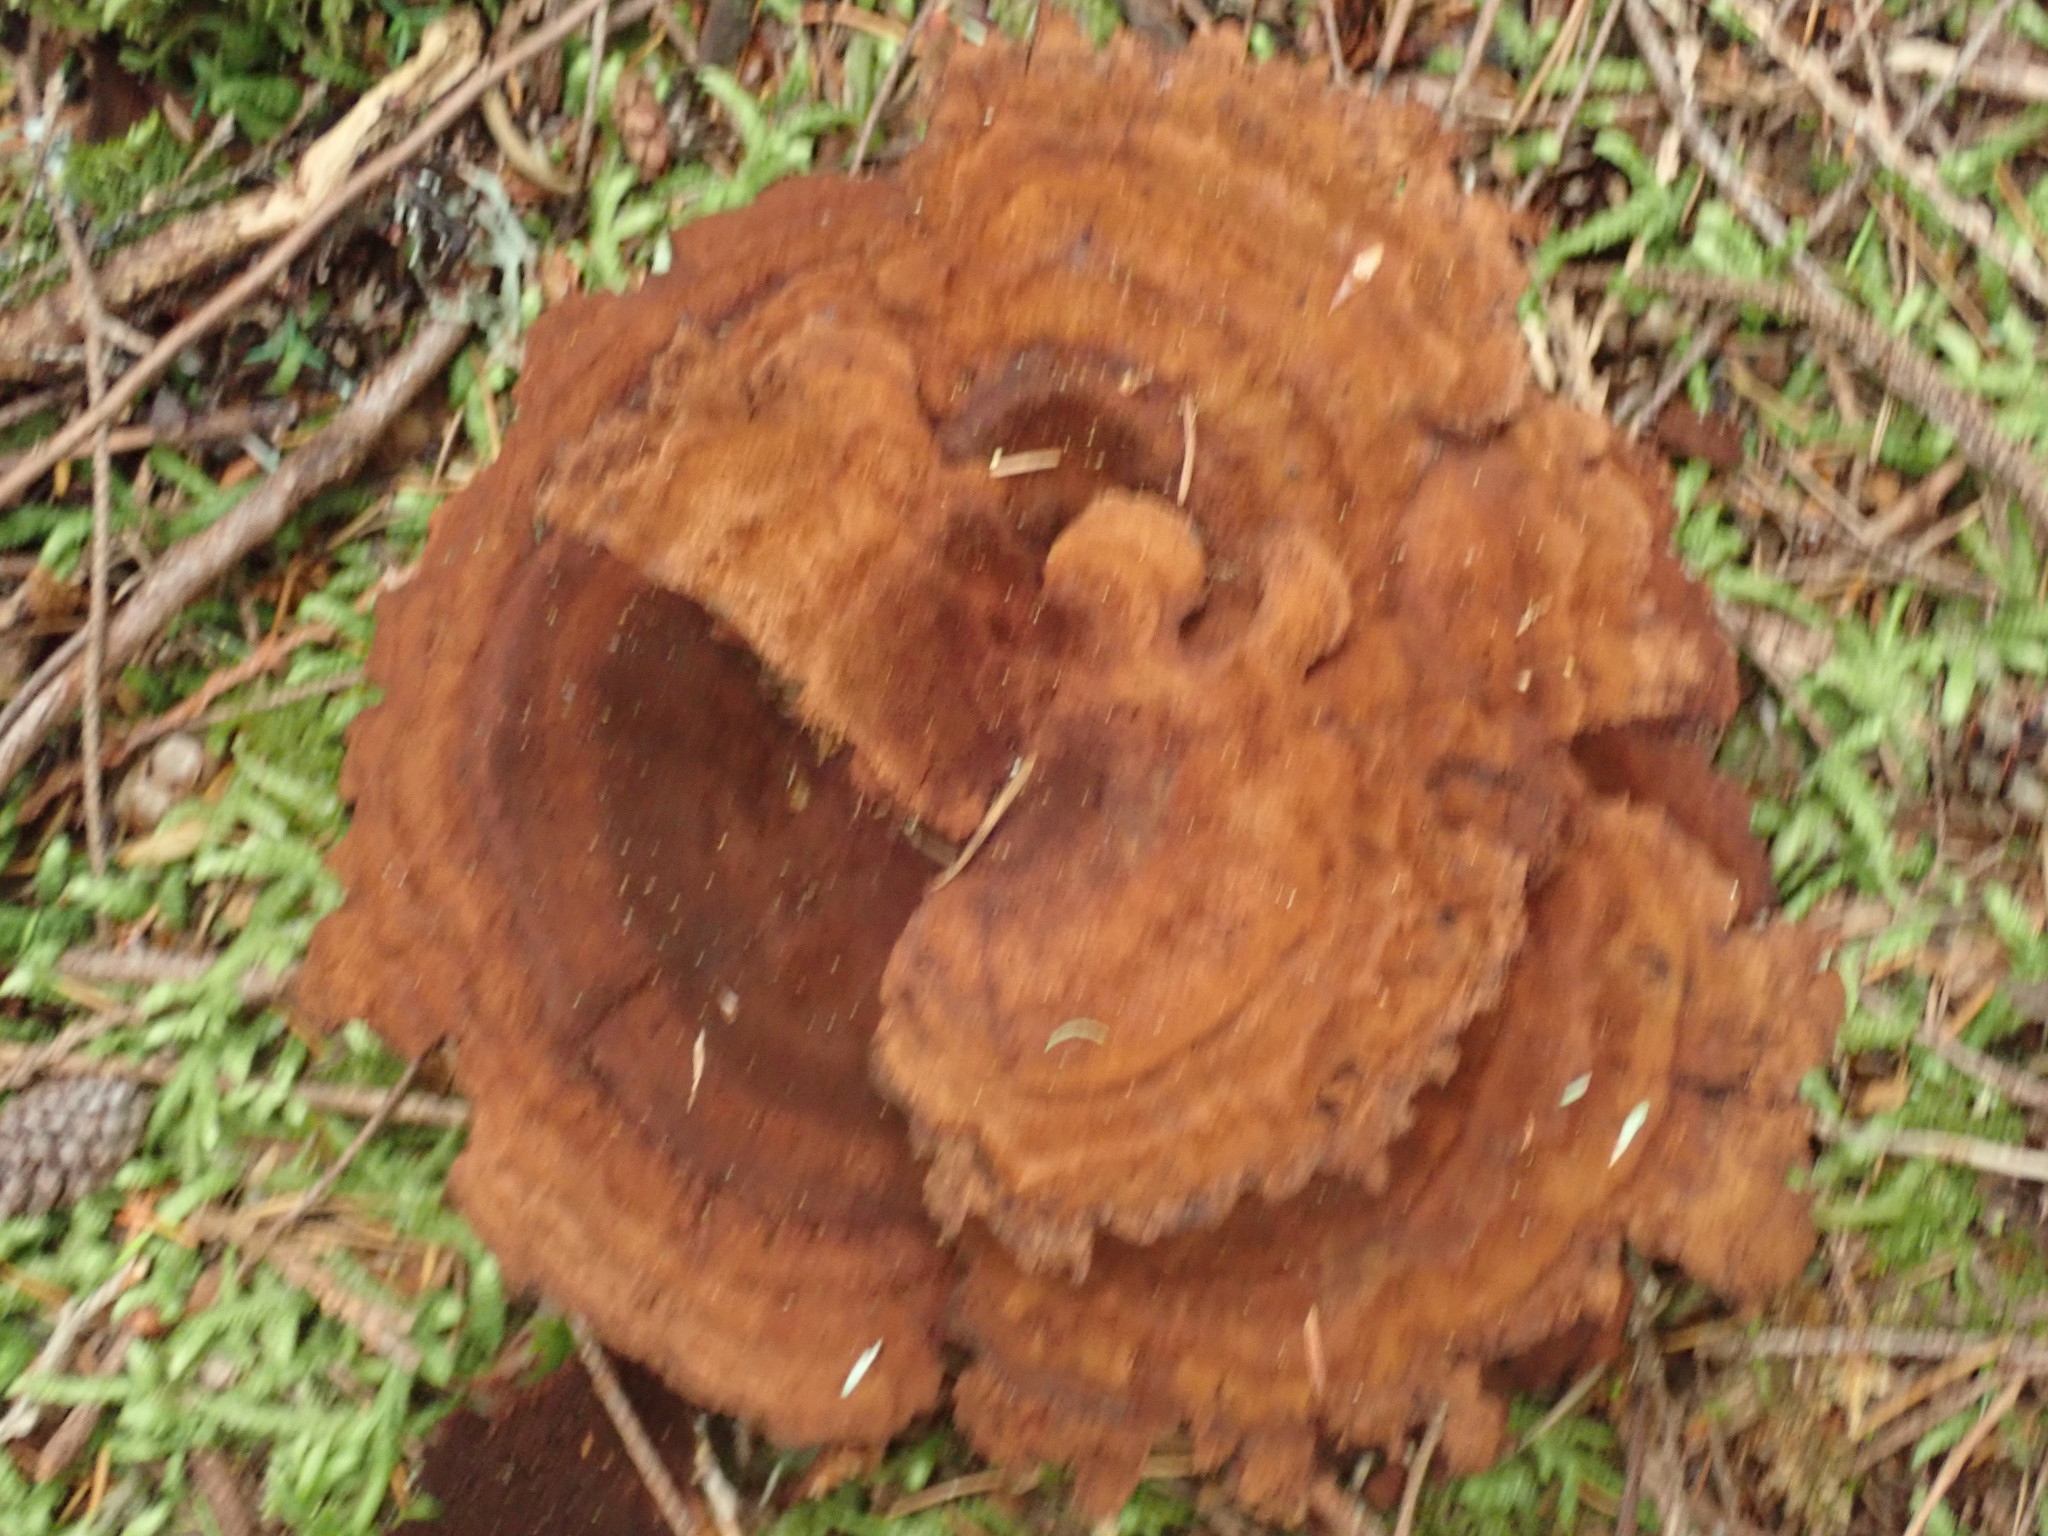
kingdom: Fungi
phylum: Basidiomycota
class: Agaricomycetes
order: Polyporales
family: Laetiporaceae
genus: Phaeolus
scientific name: Phaeolus schweinitzii
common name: Dyer's mazegill
